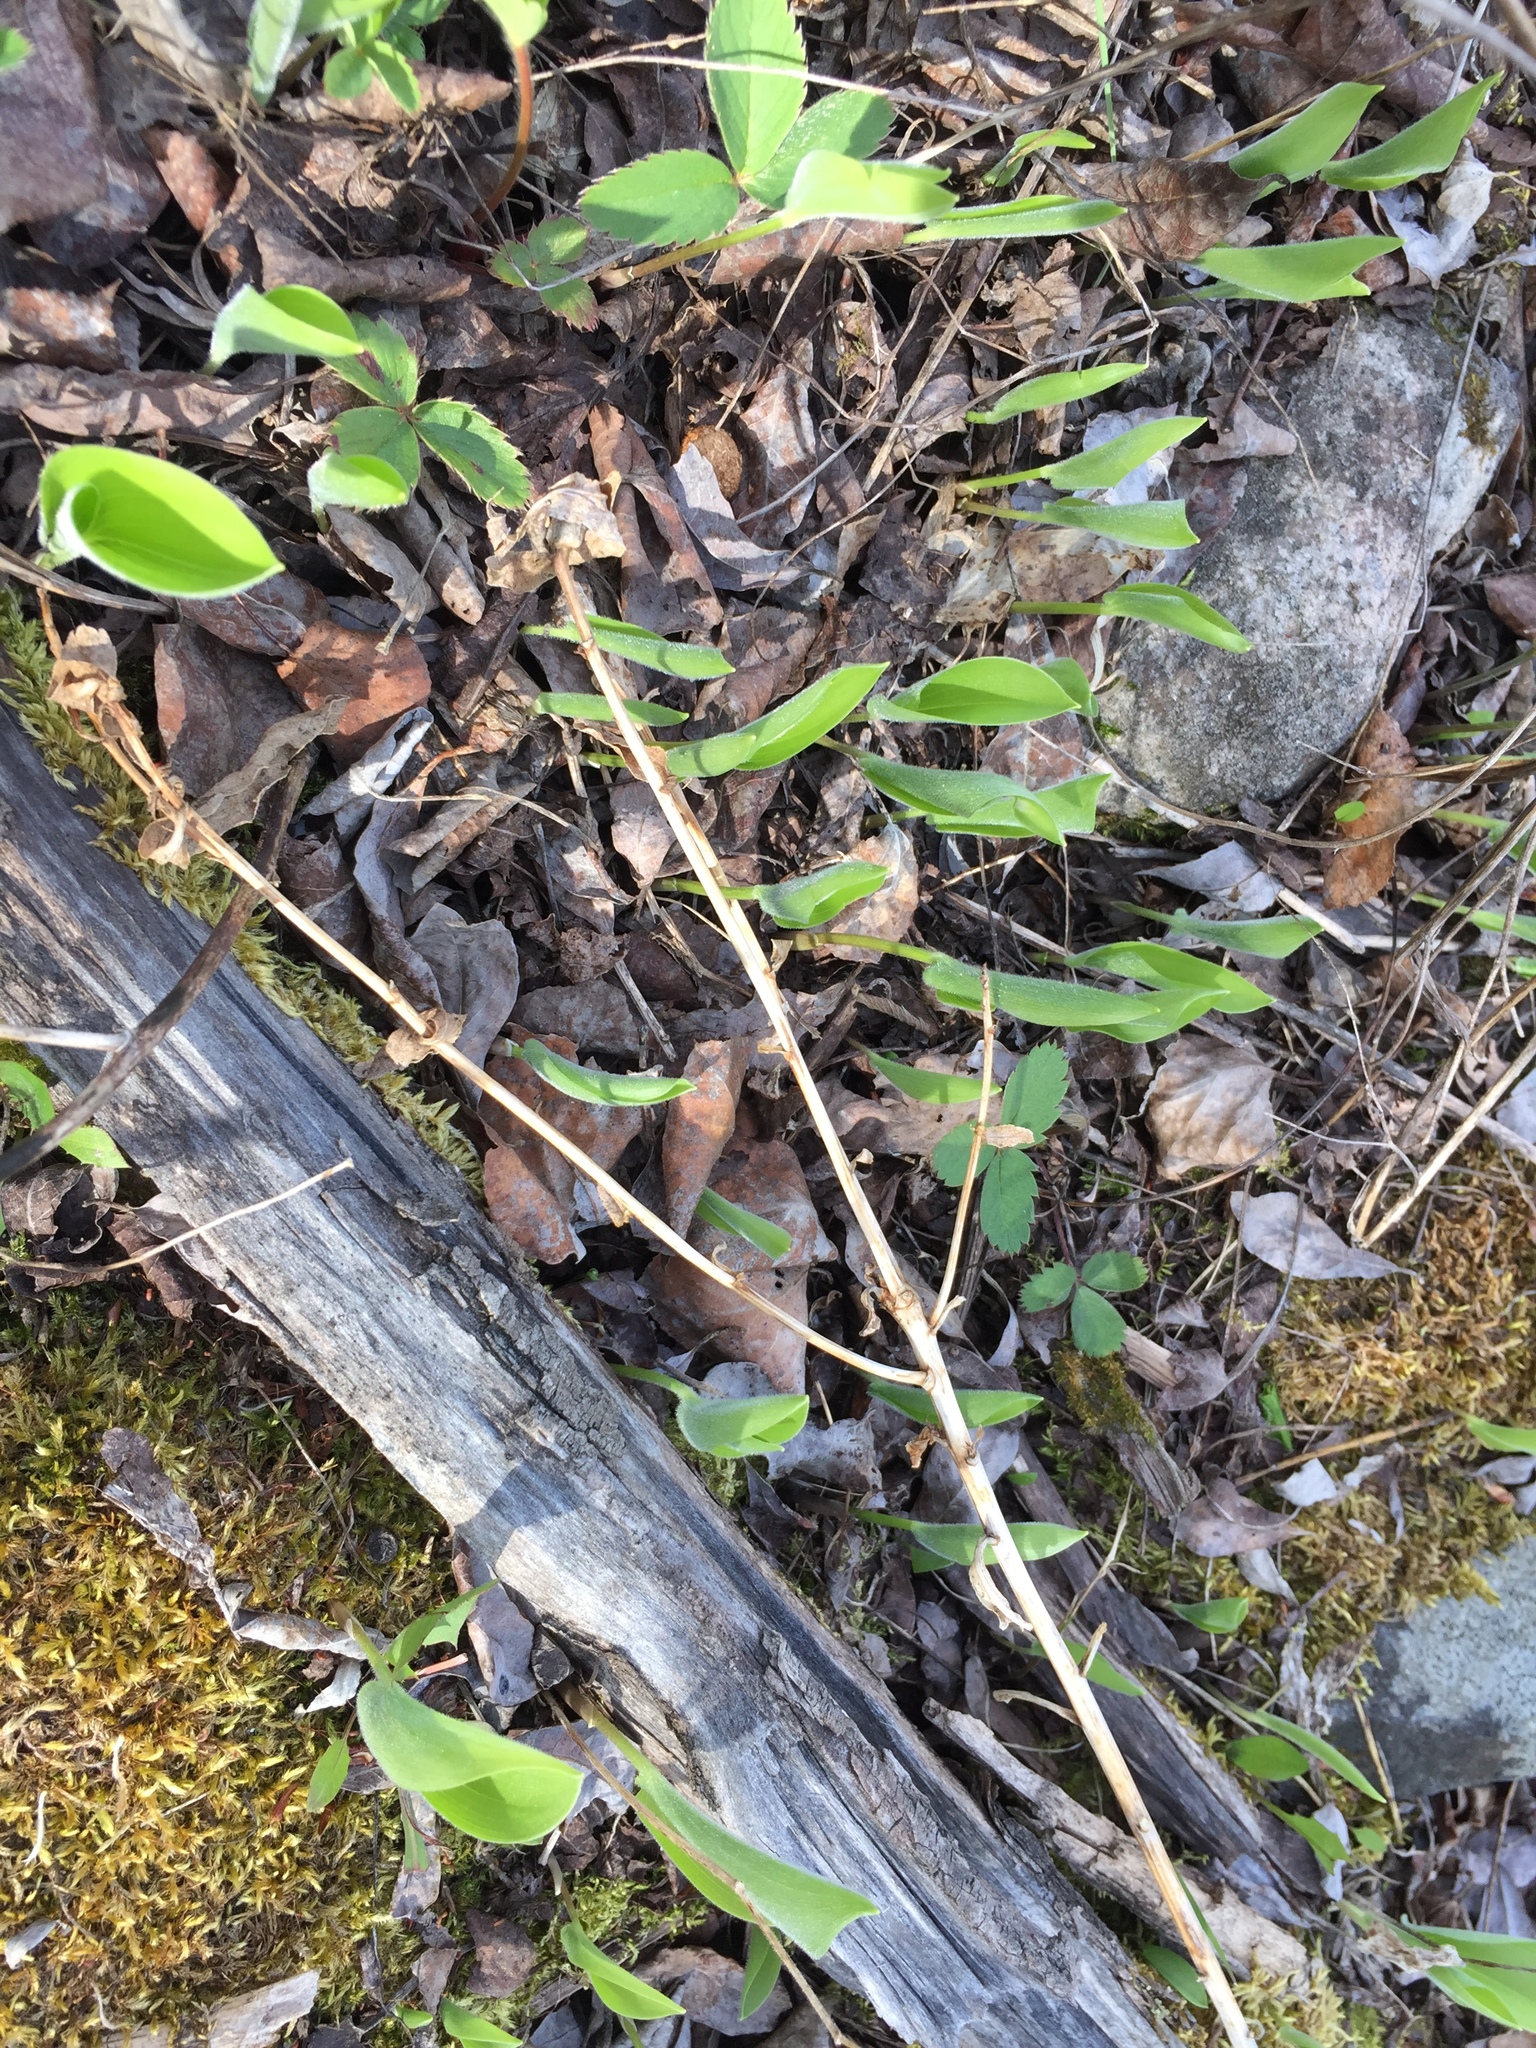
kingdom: Plantae
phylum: Tracheophyta
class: Liliopsida
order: Asparagales
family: Asparagaceae
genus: Maianthemum
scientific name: Maianthemum canadense
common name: False lily-of-the-valley
